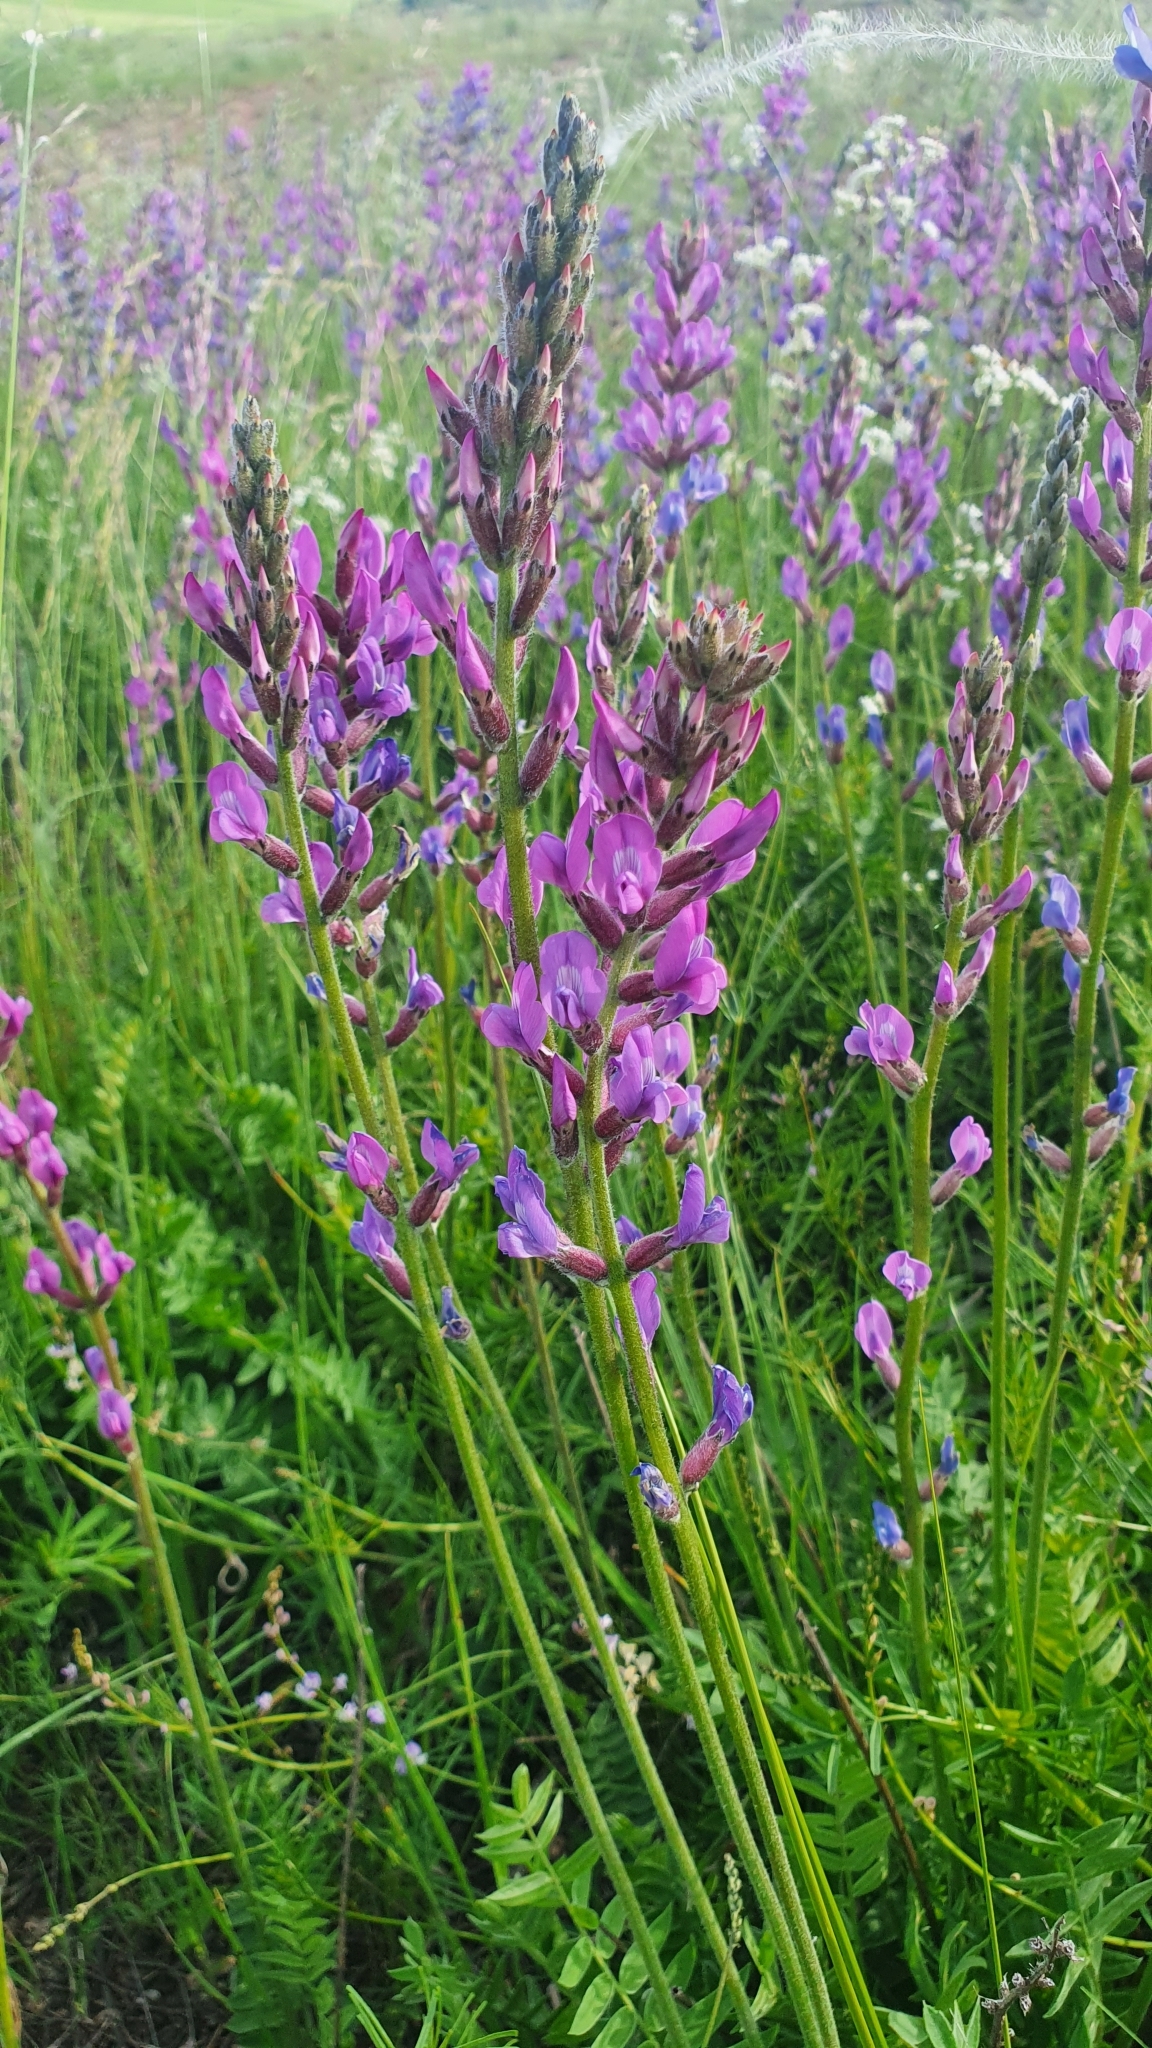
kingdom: Plantae
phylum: Tracheophyta
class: Magnoliopsida
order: Fabales
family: Fabaceae
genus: Oxytropis
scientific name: Oxytropis knjazevii
